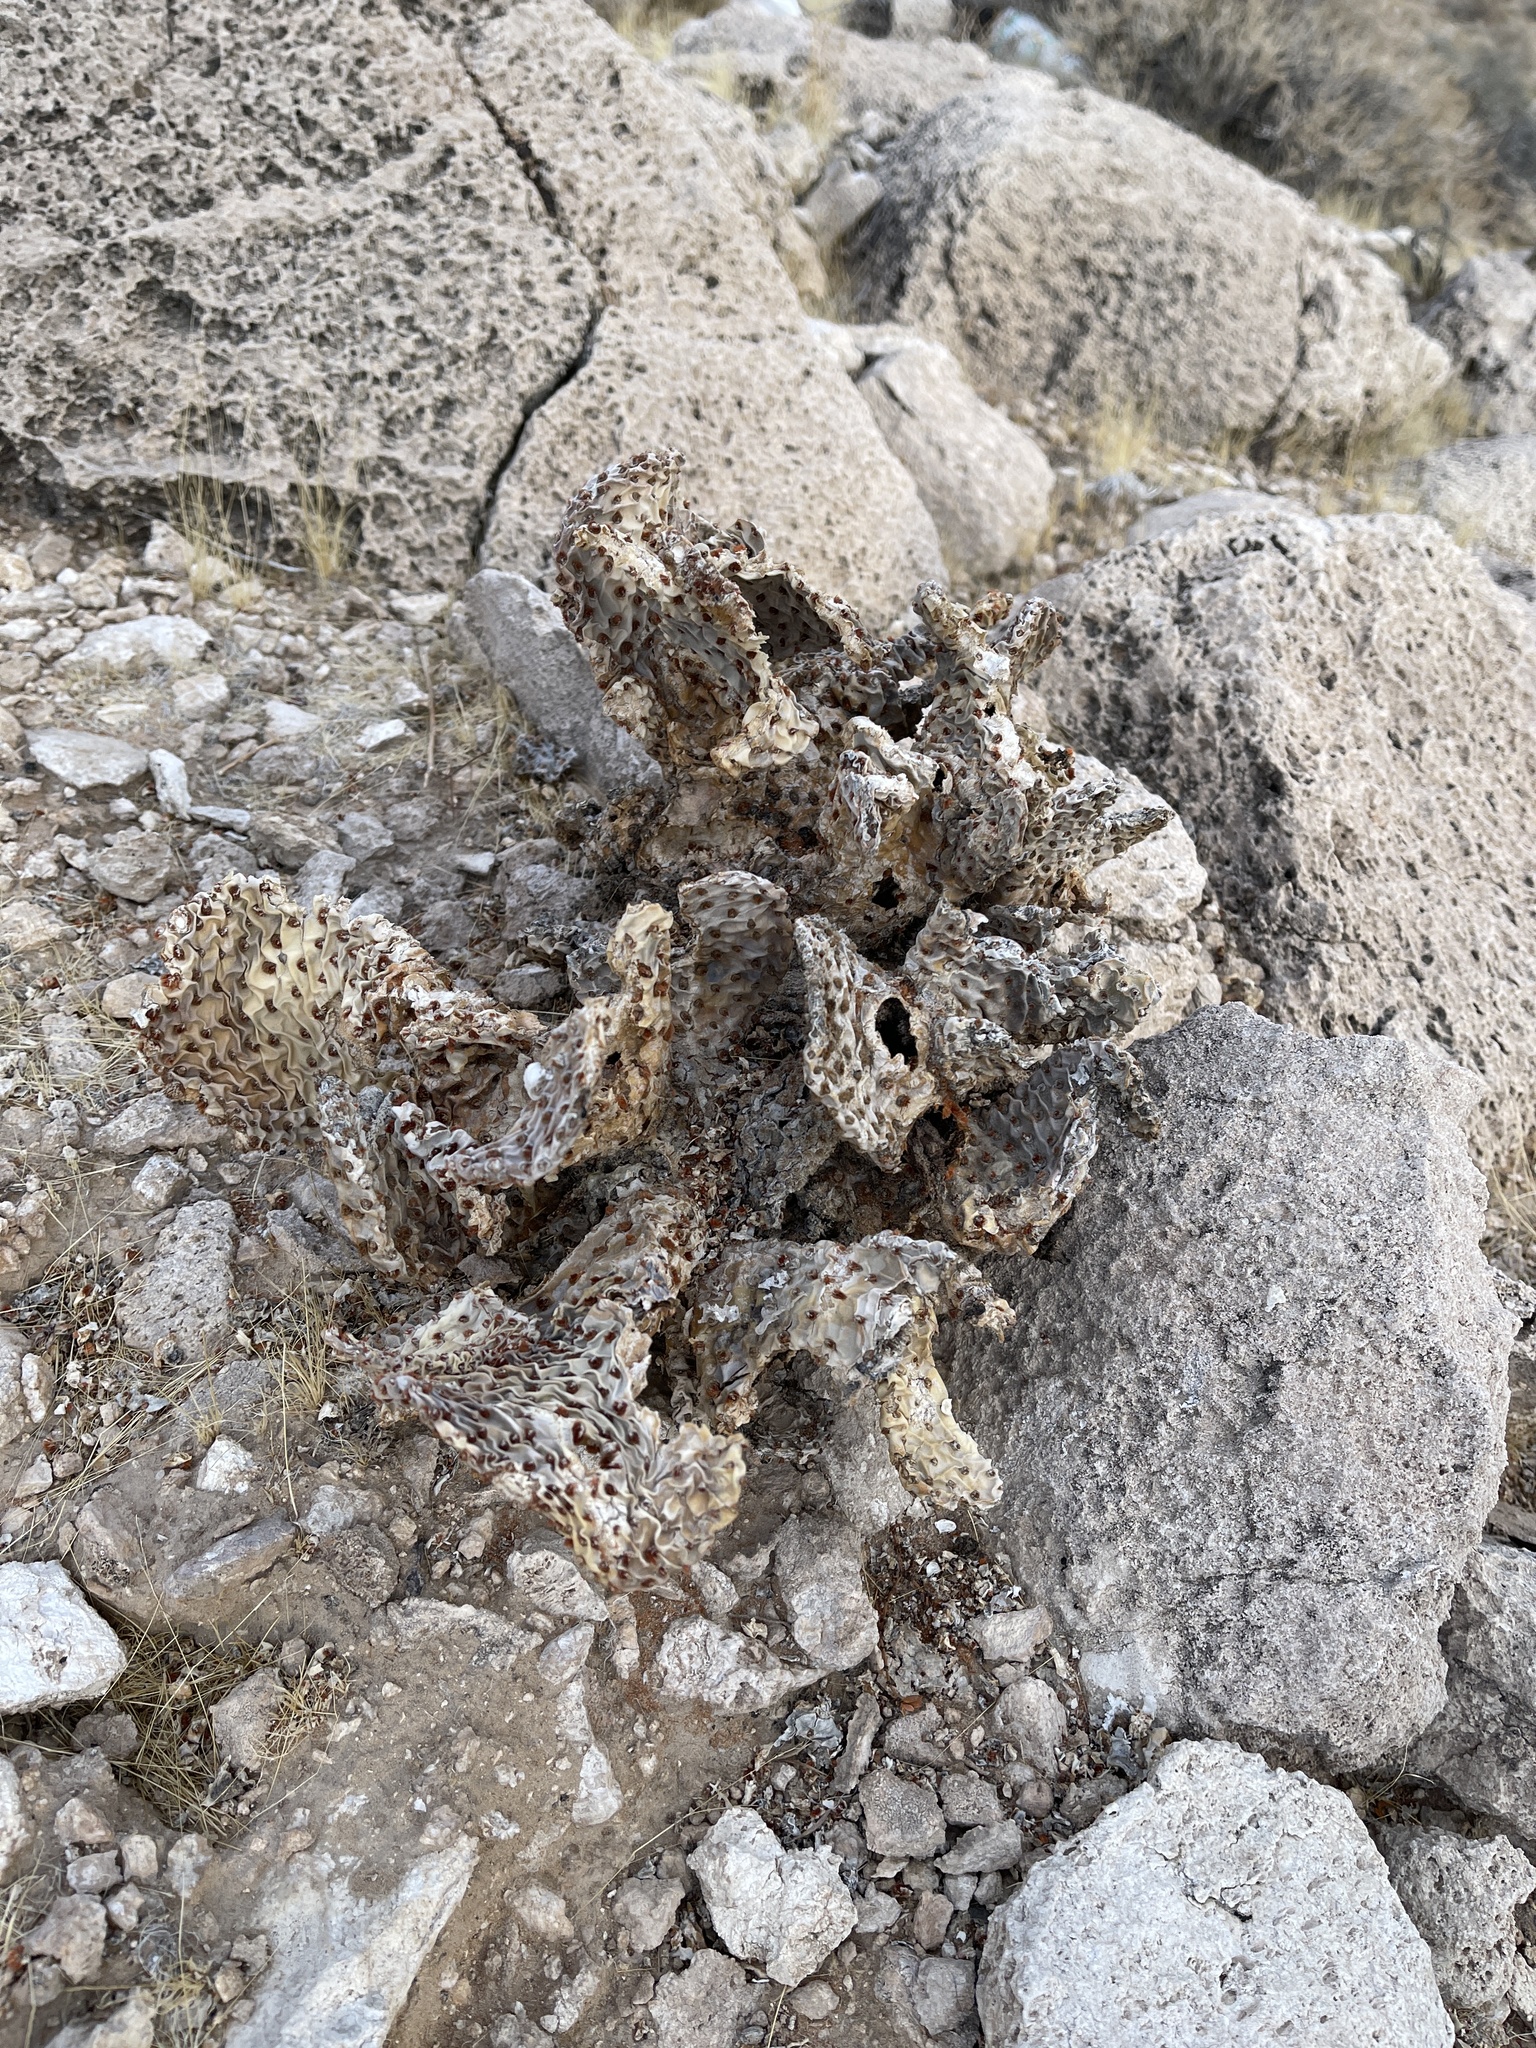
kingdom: Plantae
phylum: Tracheophyta
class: Magnoliopsida
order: Caryophyllales
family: Cactaceae
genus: Opuntia
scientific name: Opuntia basilaris
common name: Beavertail prickly-pear
